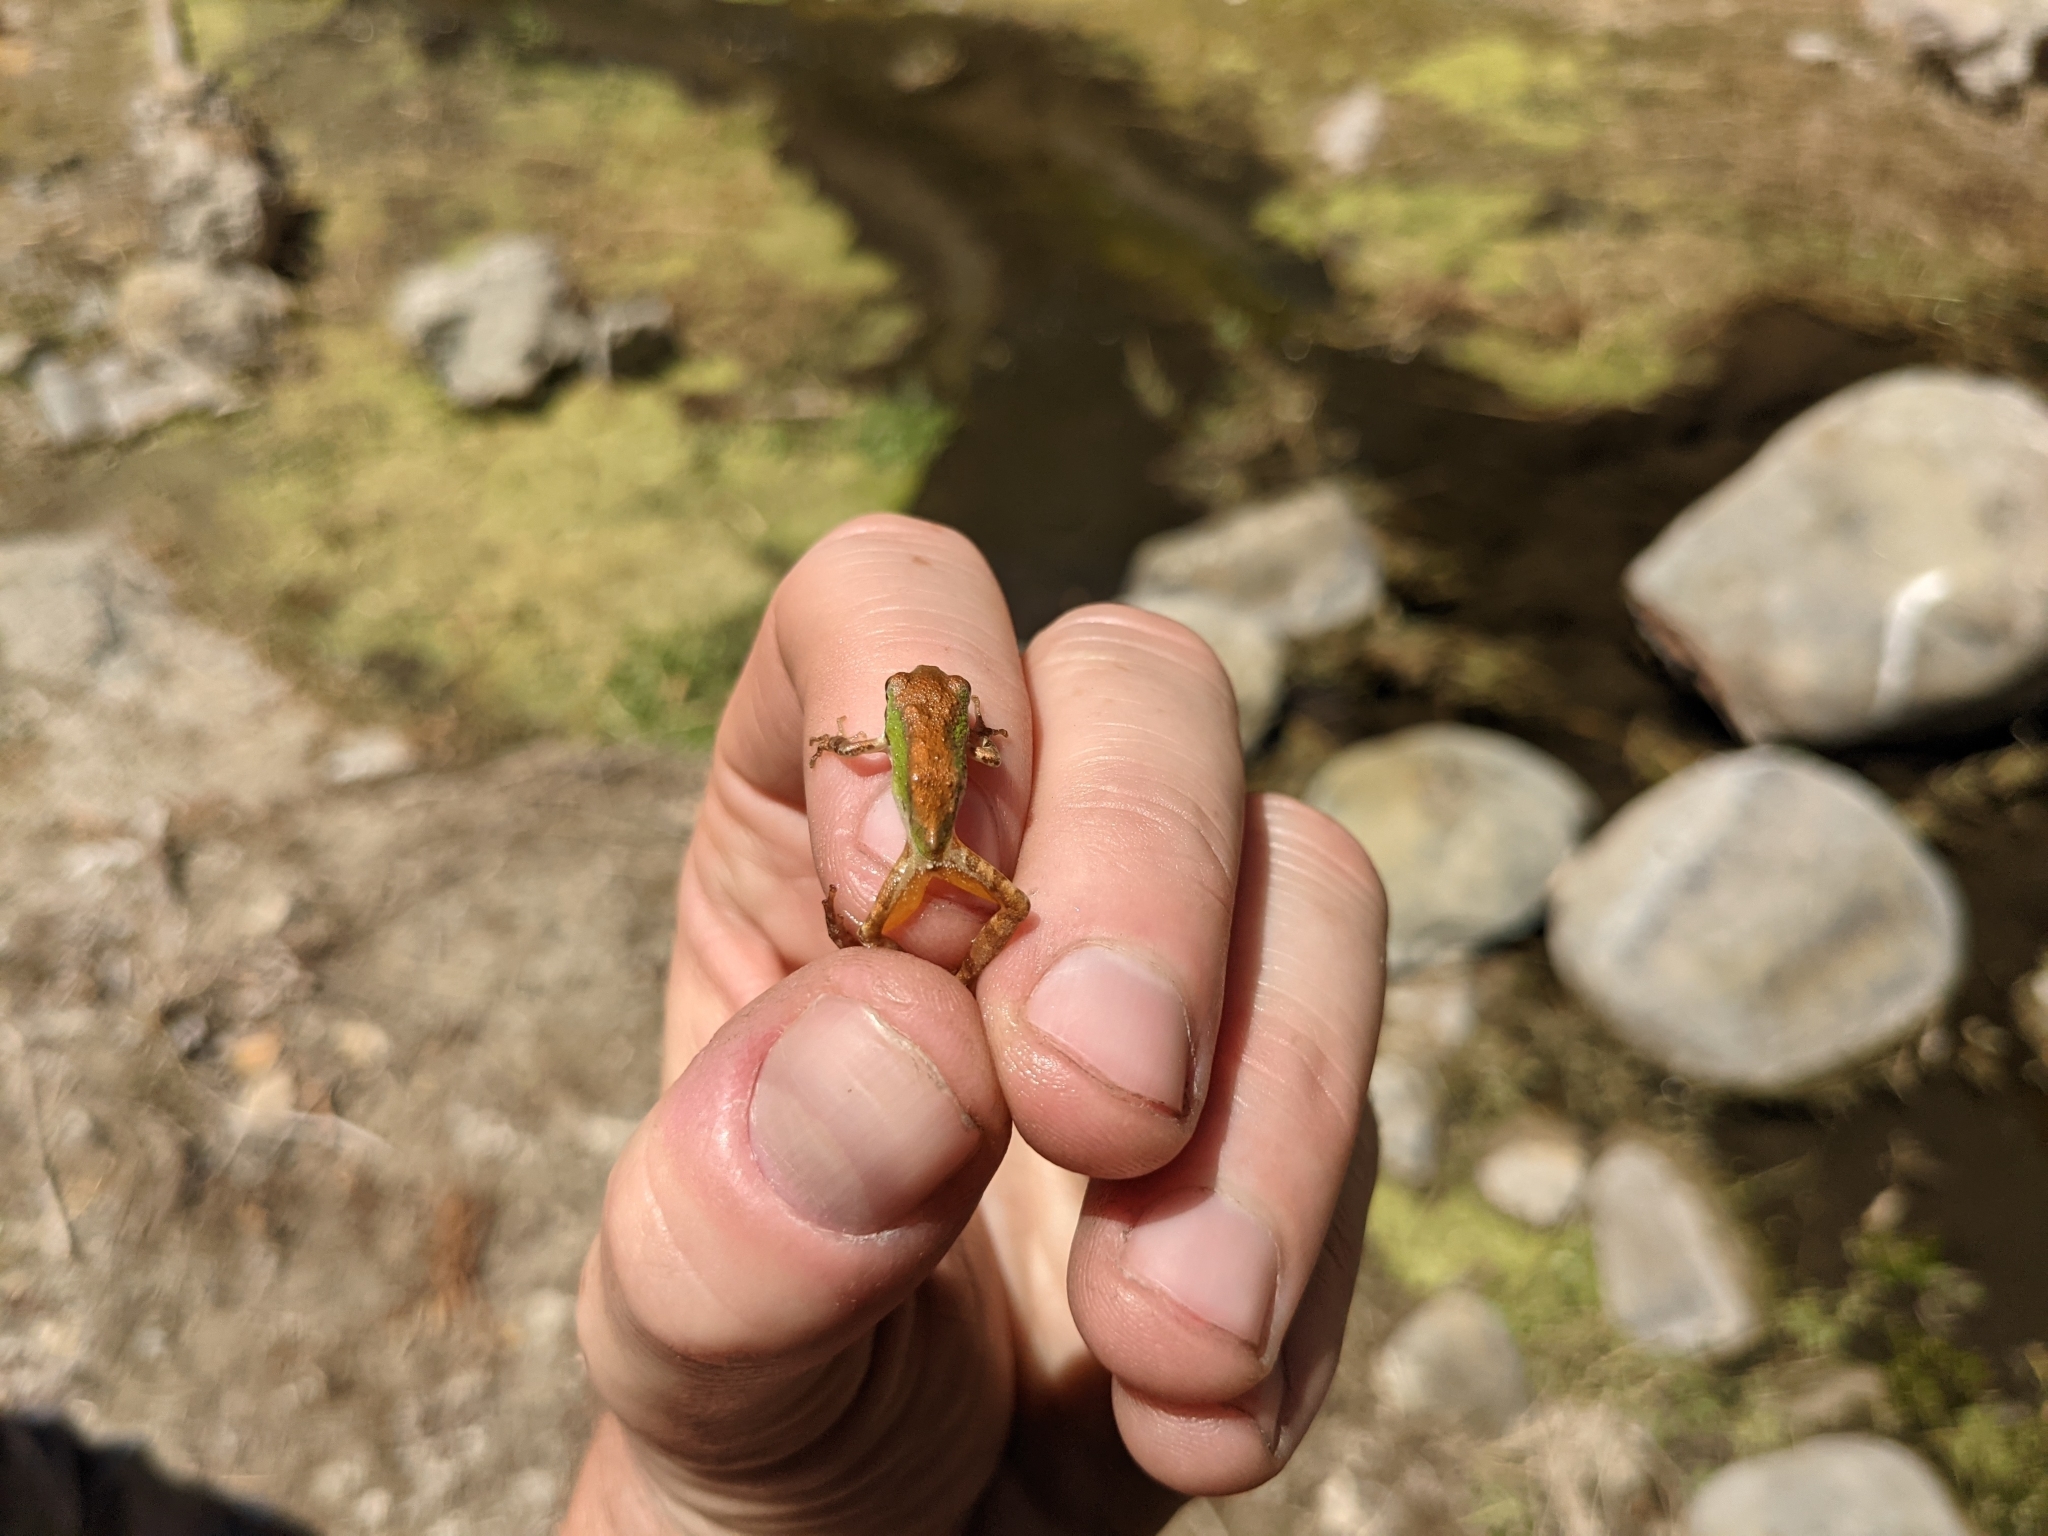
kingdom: Animalia
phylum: Chordata
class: Amphibia
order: Anura
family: Hylidae
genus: Pseudacris
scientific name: Pseudacris regilla
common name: Pacific chorus frog
